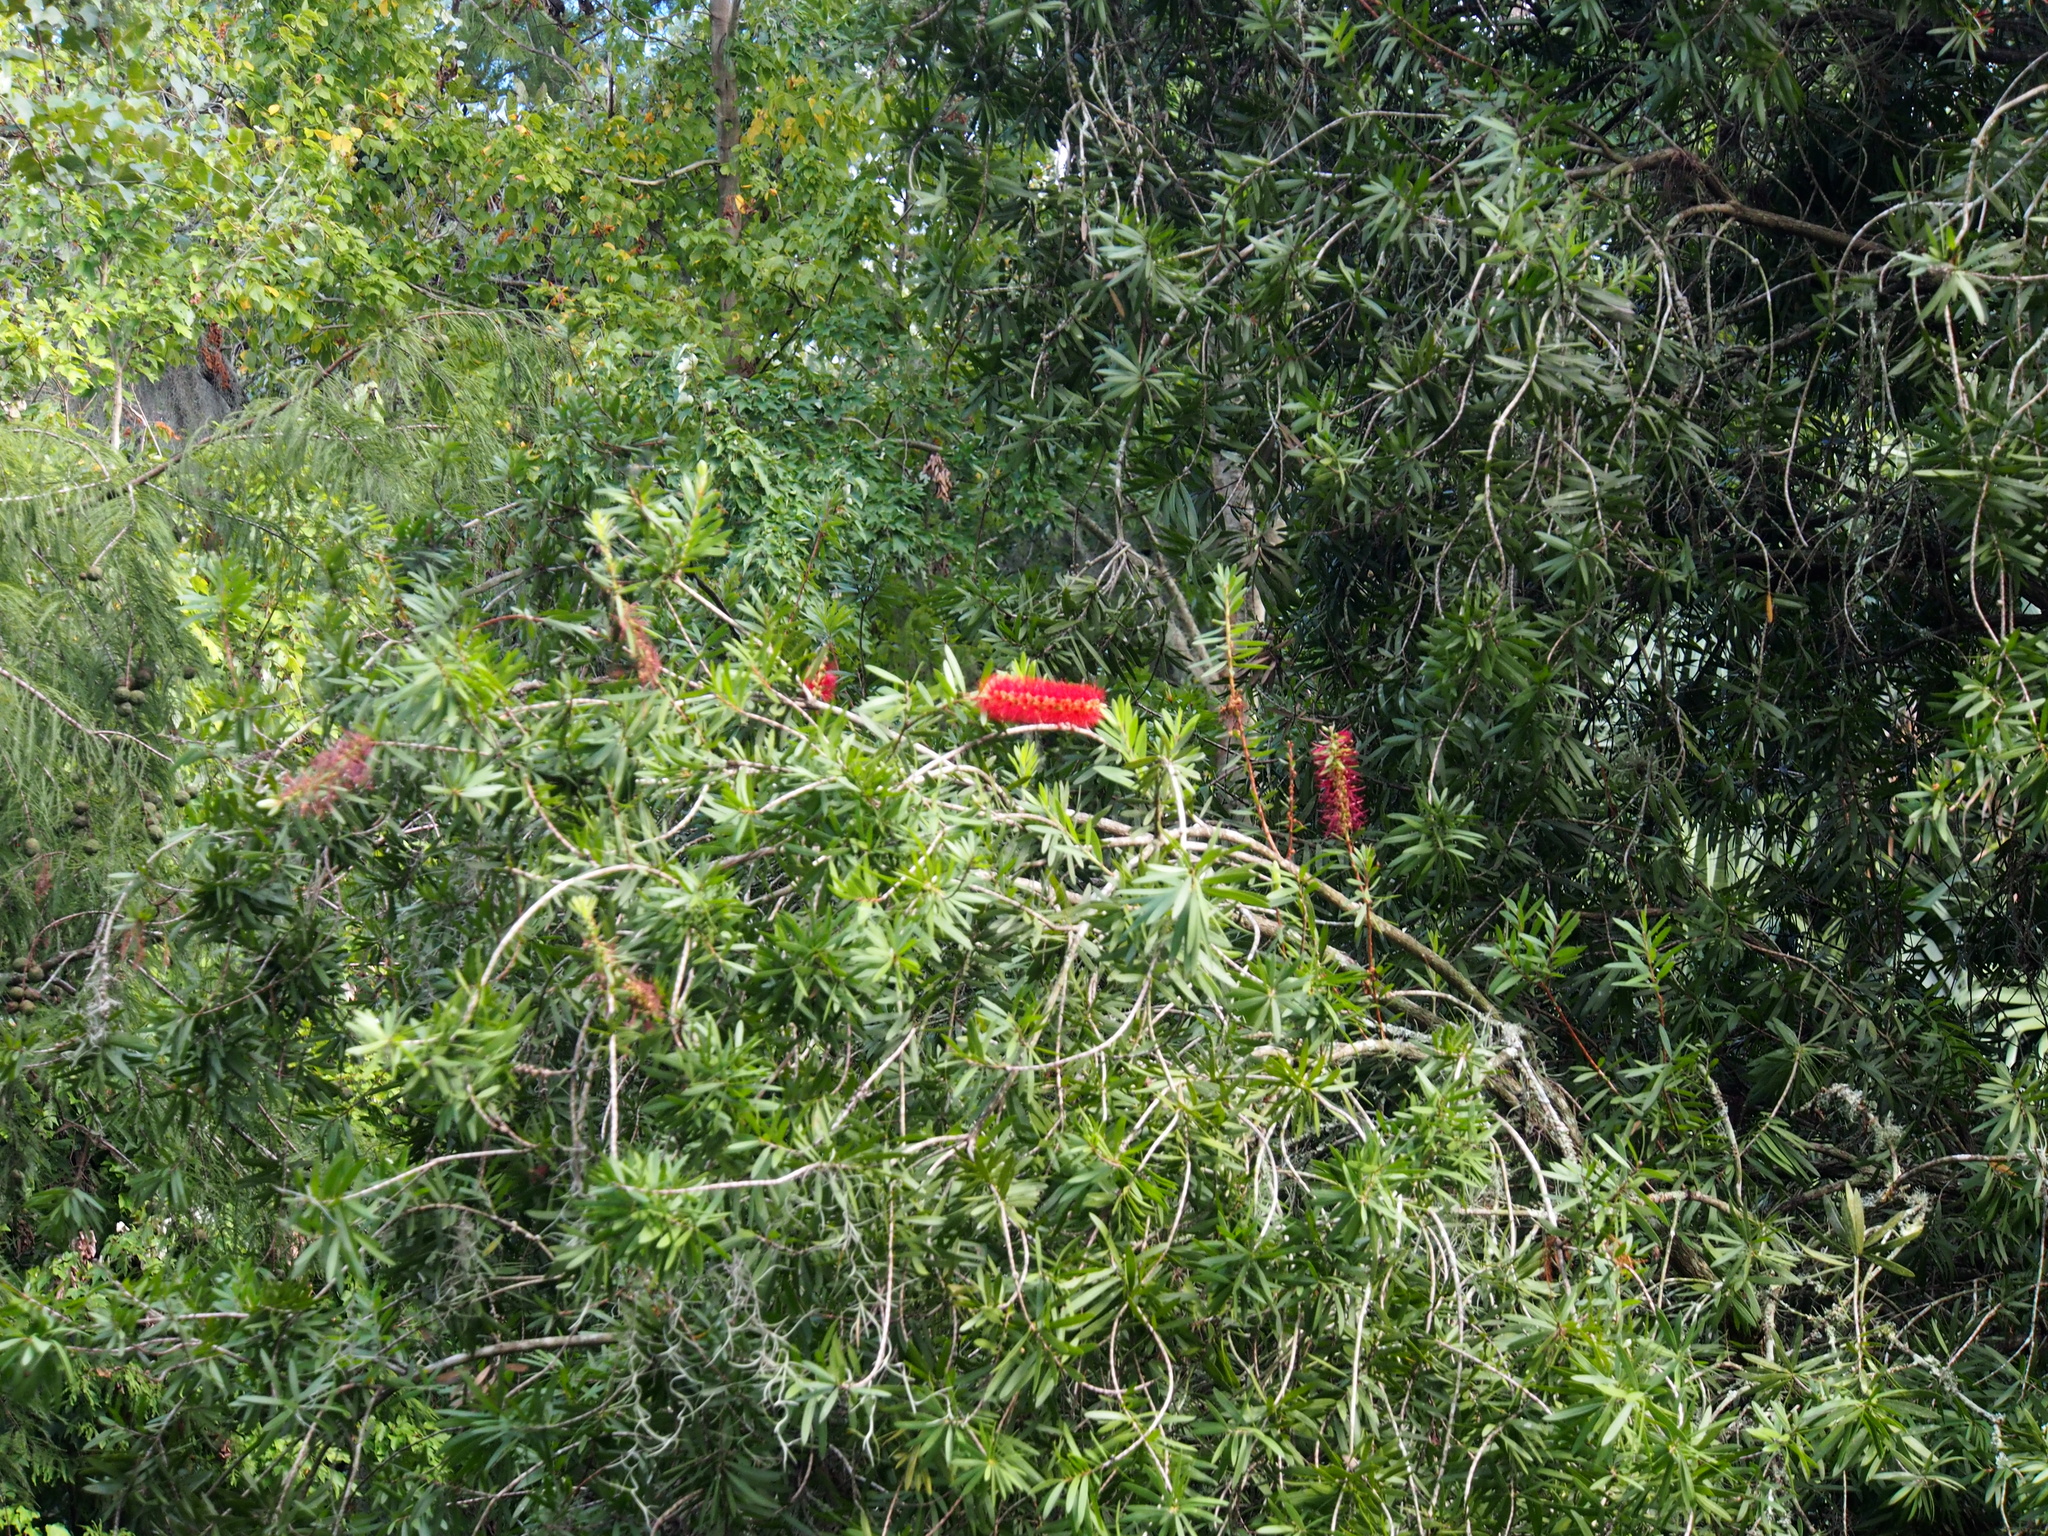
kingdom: Plantae
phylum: Tracheophyta
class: Magnoliopsida
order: Myrtales
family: Myrtaceae
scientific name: Myrtaceae
